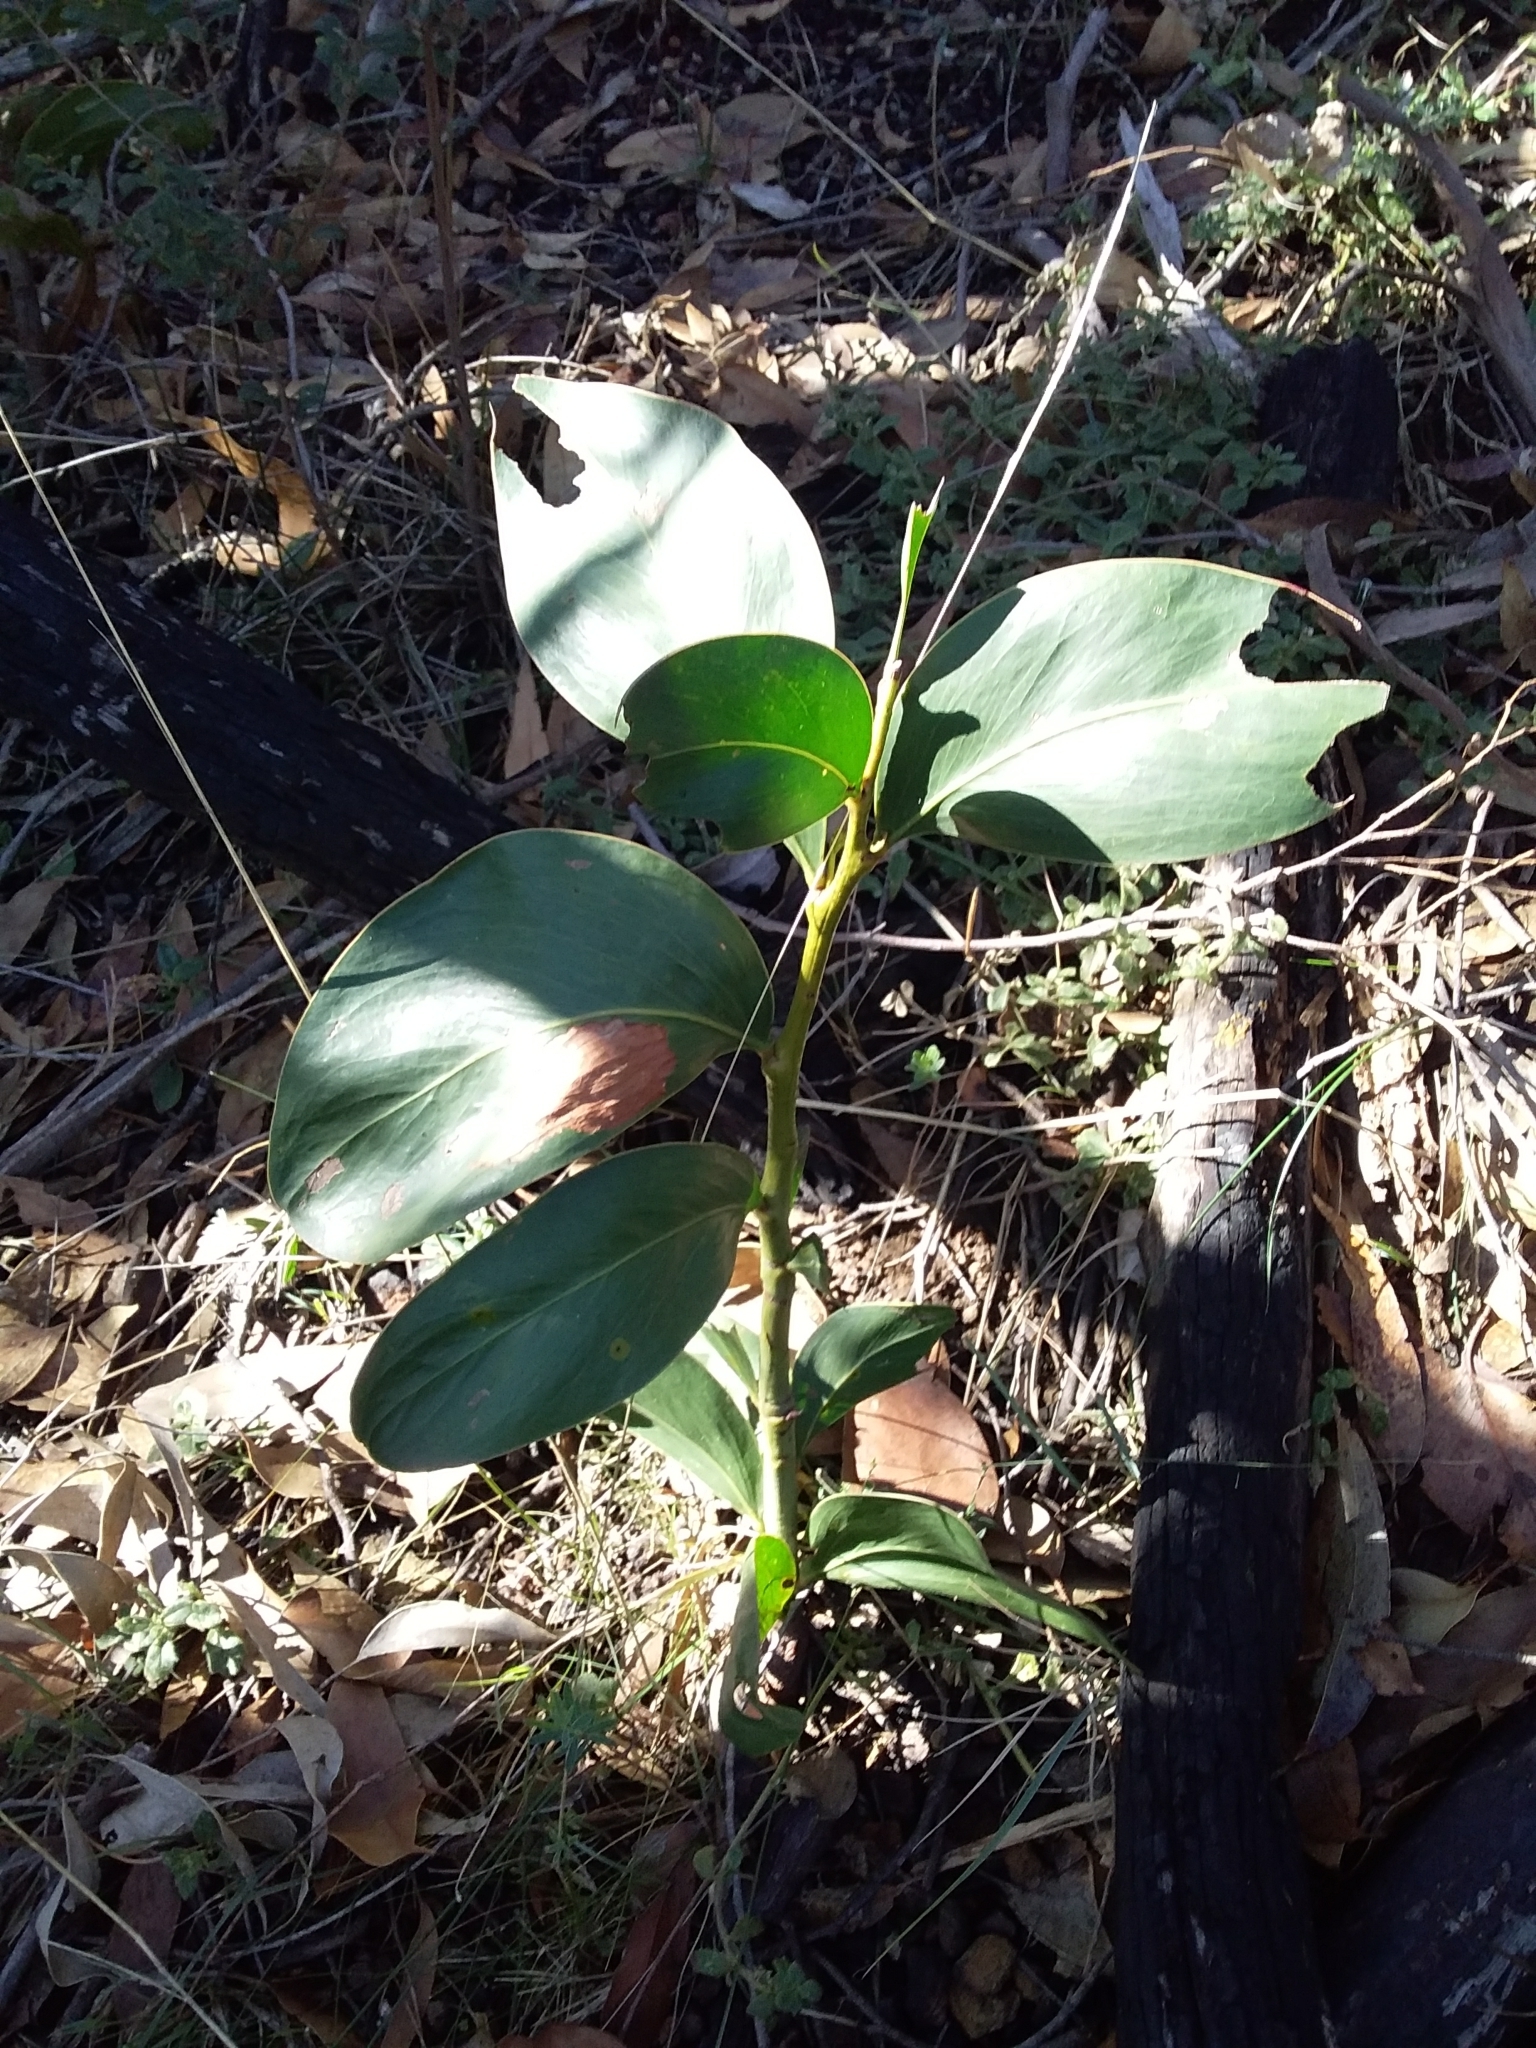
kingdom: Plantae
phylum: Tracheophyta
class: Magnoliopsida
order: Fabales
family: Fabaceae
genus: Acacia
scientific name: Acacia pycnantha
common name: Golden wattle
